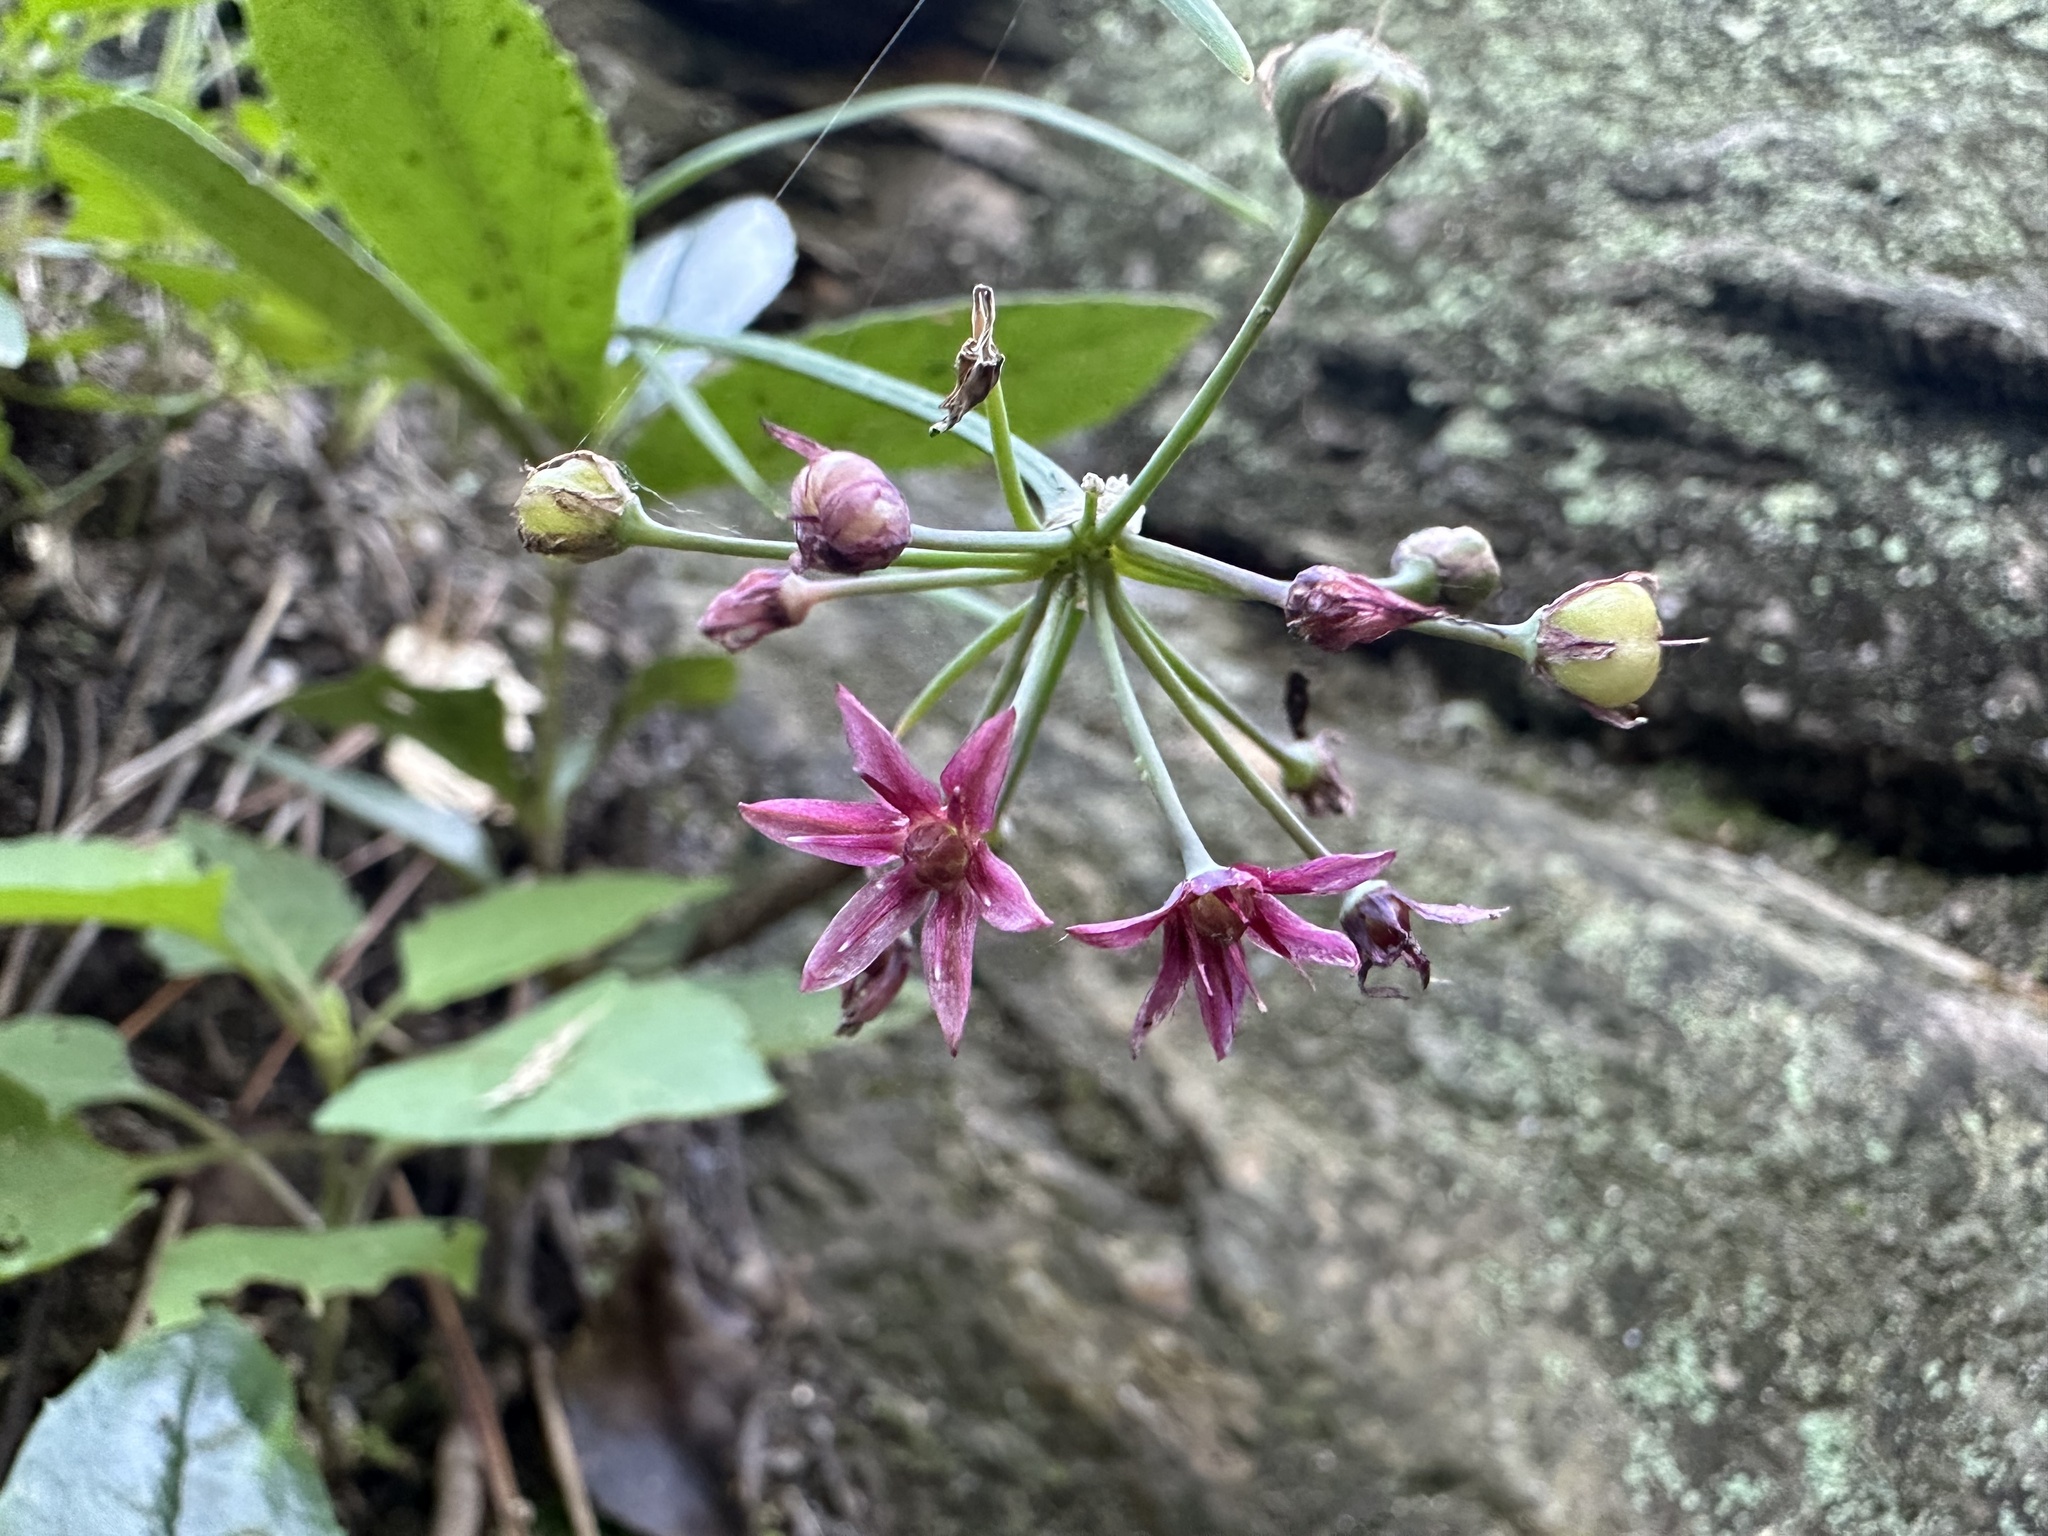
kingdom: Plantae
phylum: Tracheophyta
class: Liliopsida
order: Asparagales
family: Amaryllidaceae
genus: Allium
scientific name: Allium glandulosum
